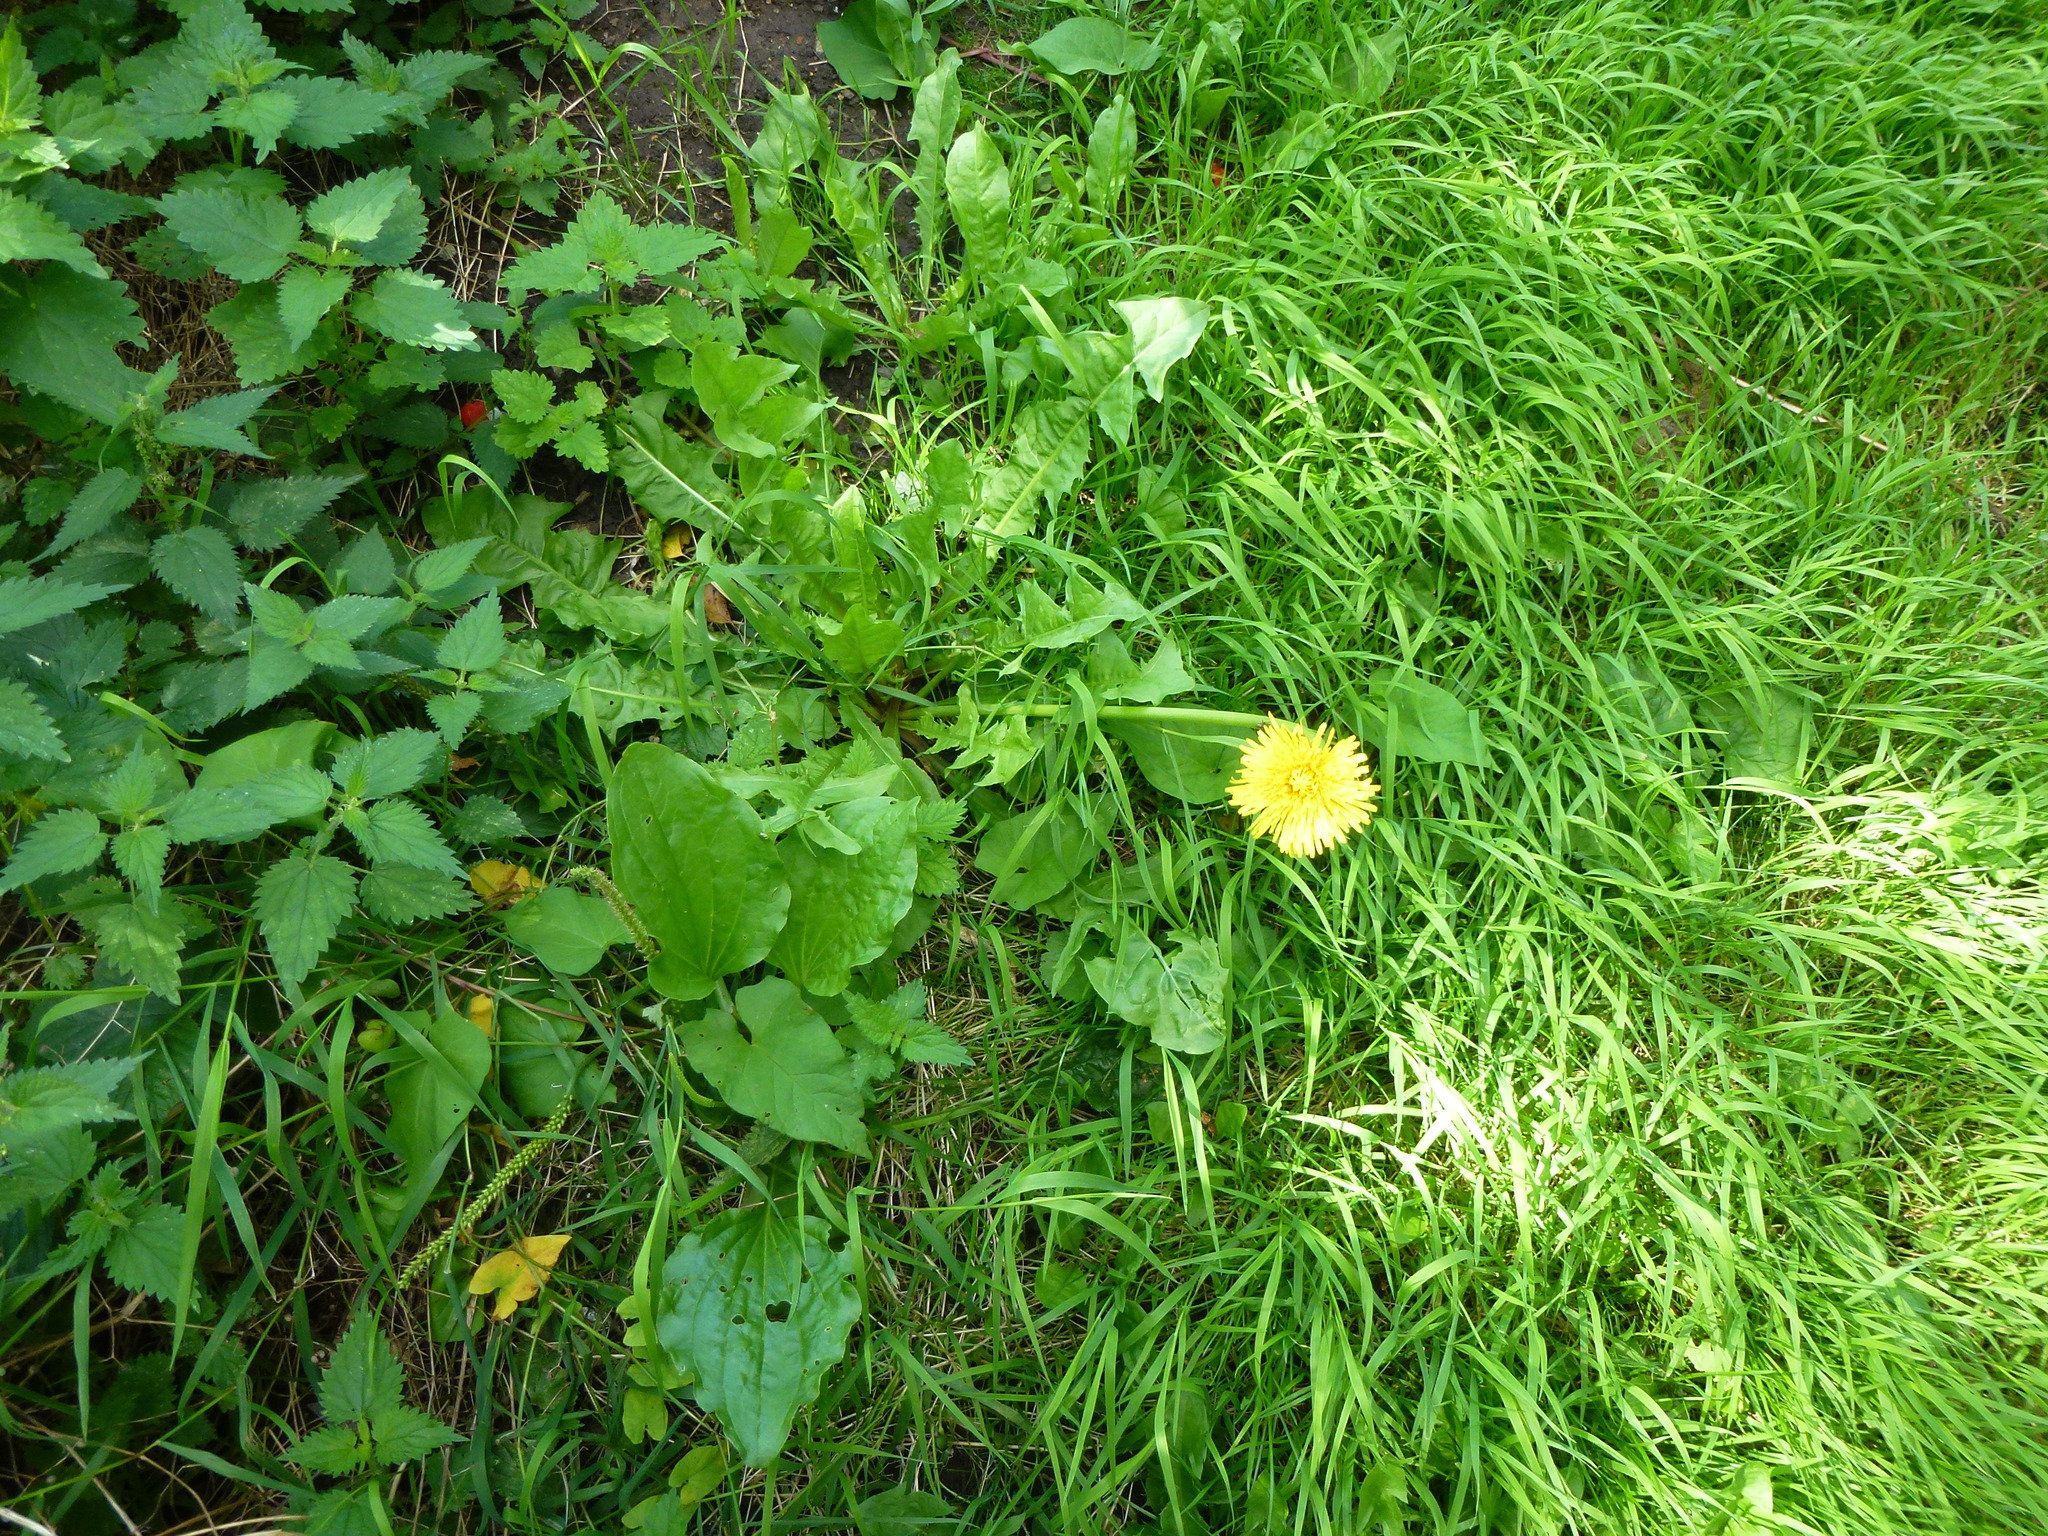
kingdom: Plantae
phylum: Tracheophyta
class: Magnoliopsida
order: Asterales
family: Asteraceae
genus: Taraxacum
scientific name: Taraxacum officinale
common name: Common dandelion
